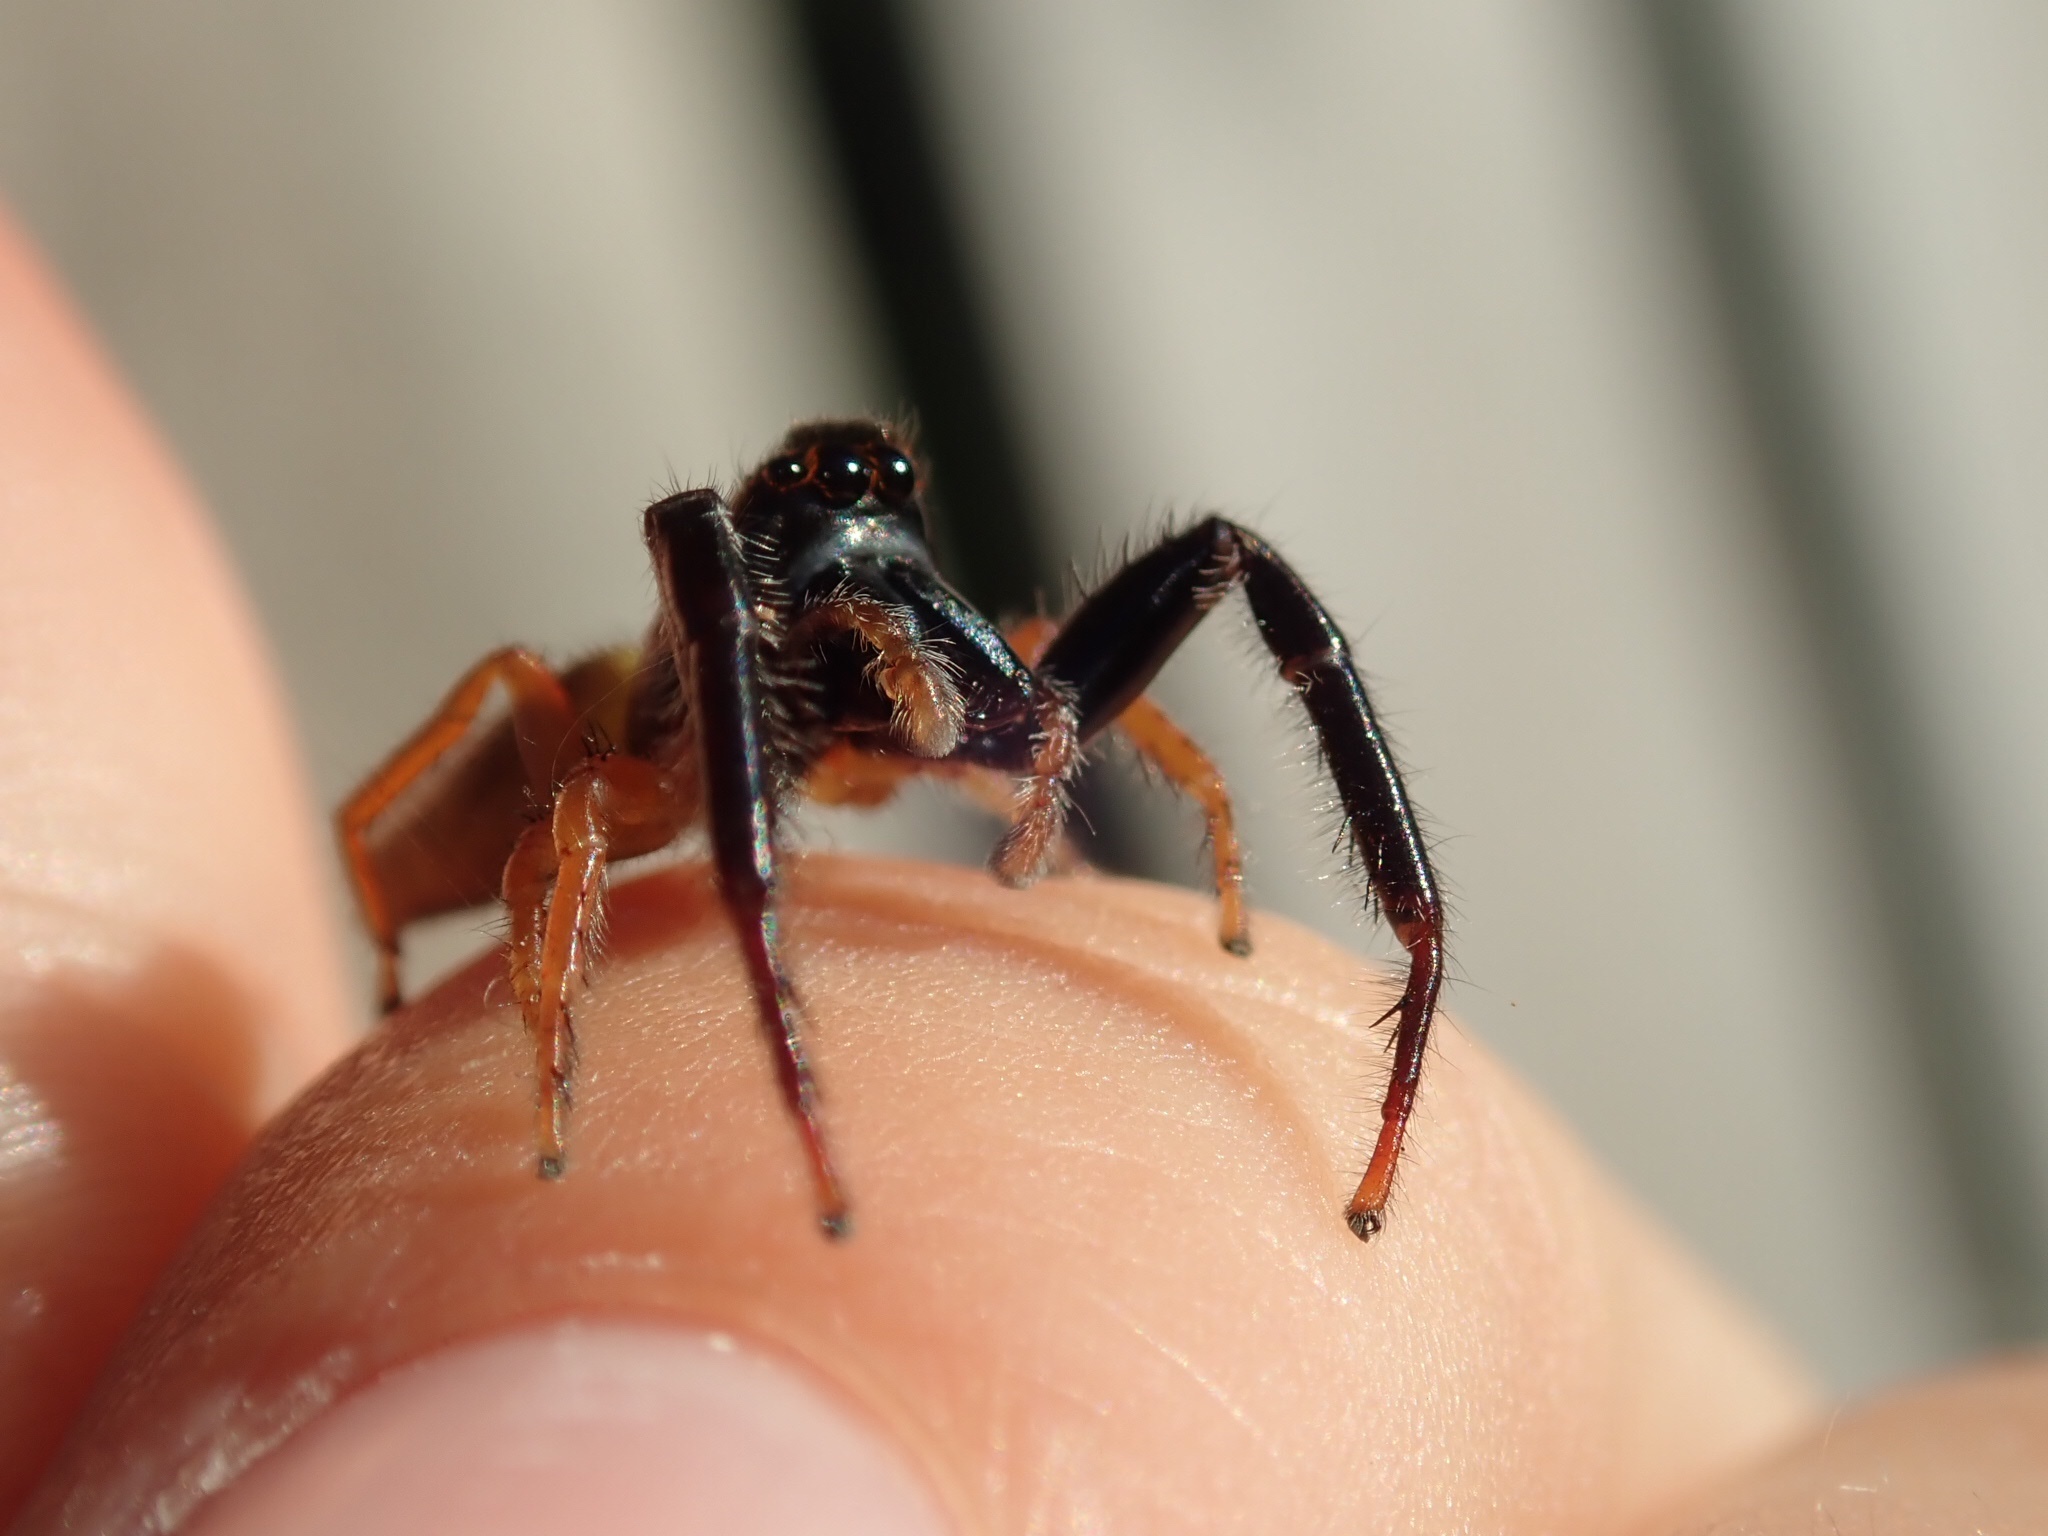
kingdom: Animalia
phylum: Arthropoda
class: Arachnida
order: Araneae
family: Salticidae
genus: Trite
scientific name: Trite planiceps
